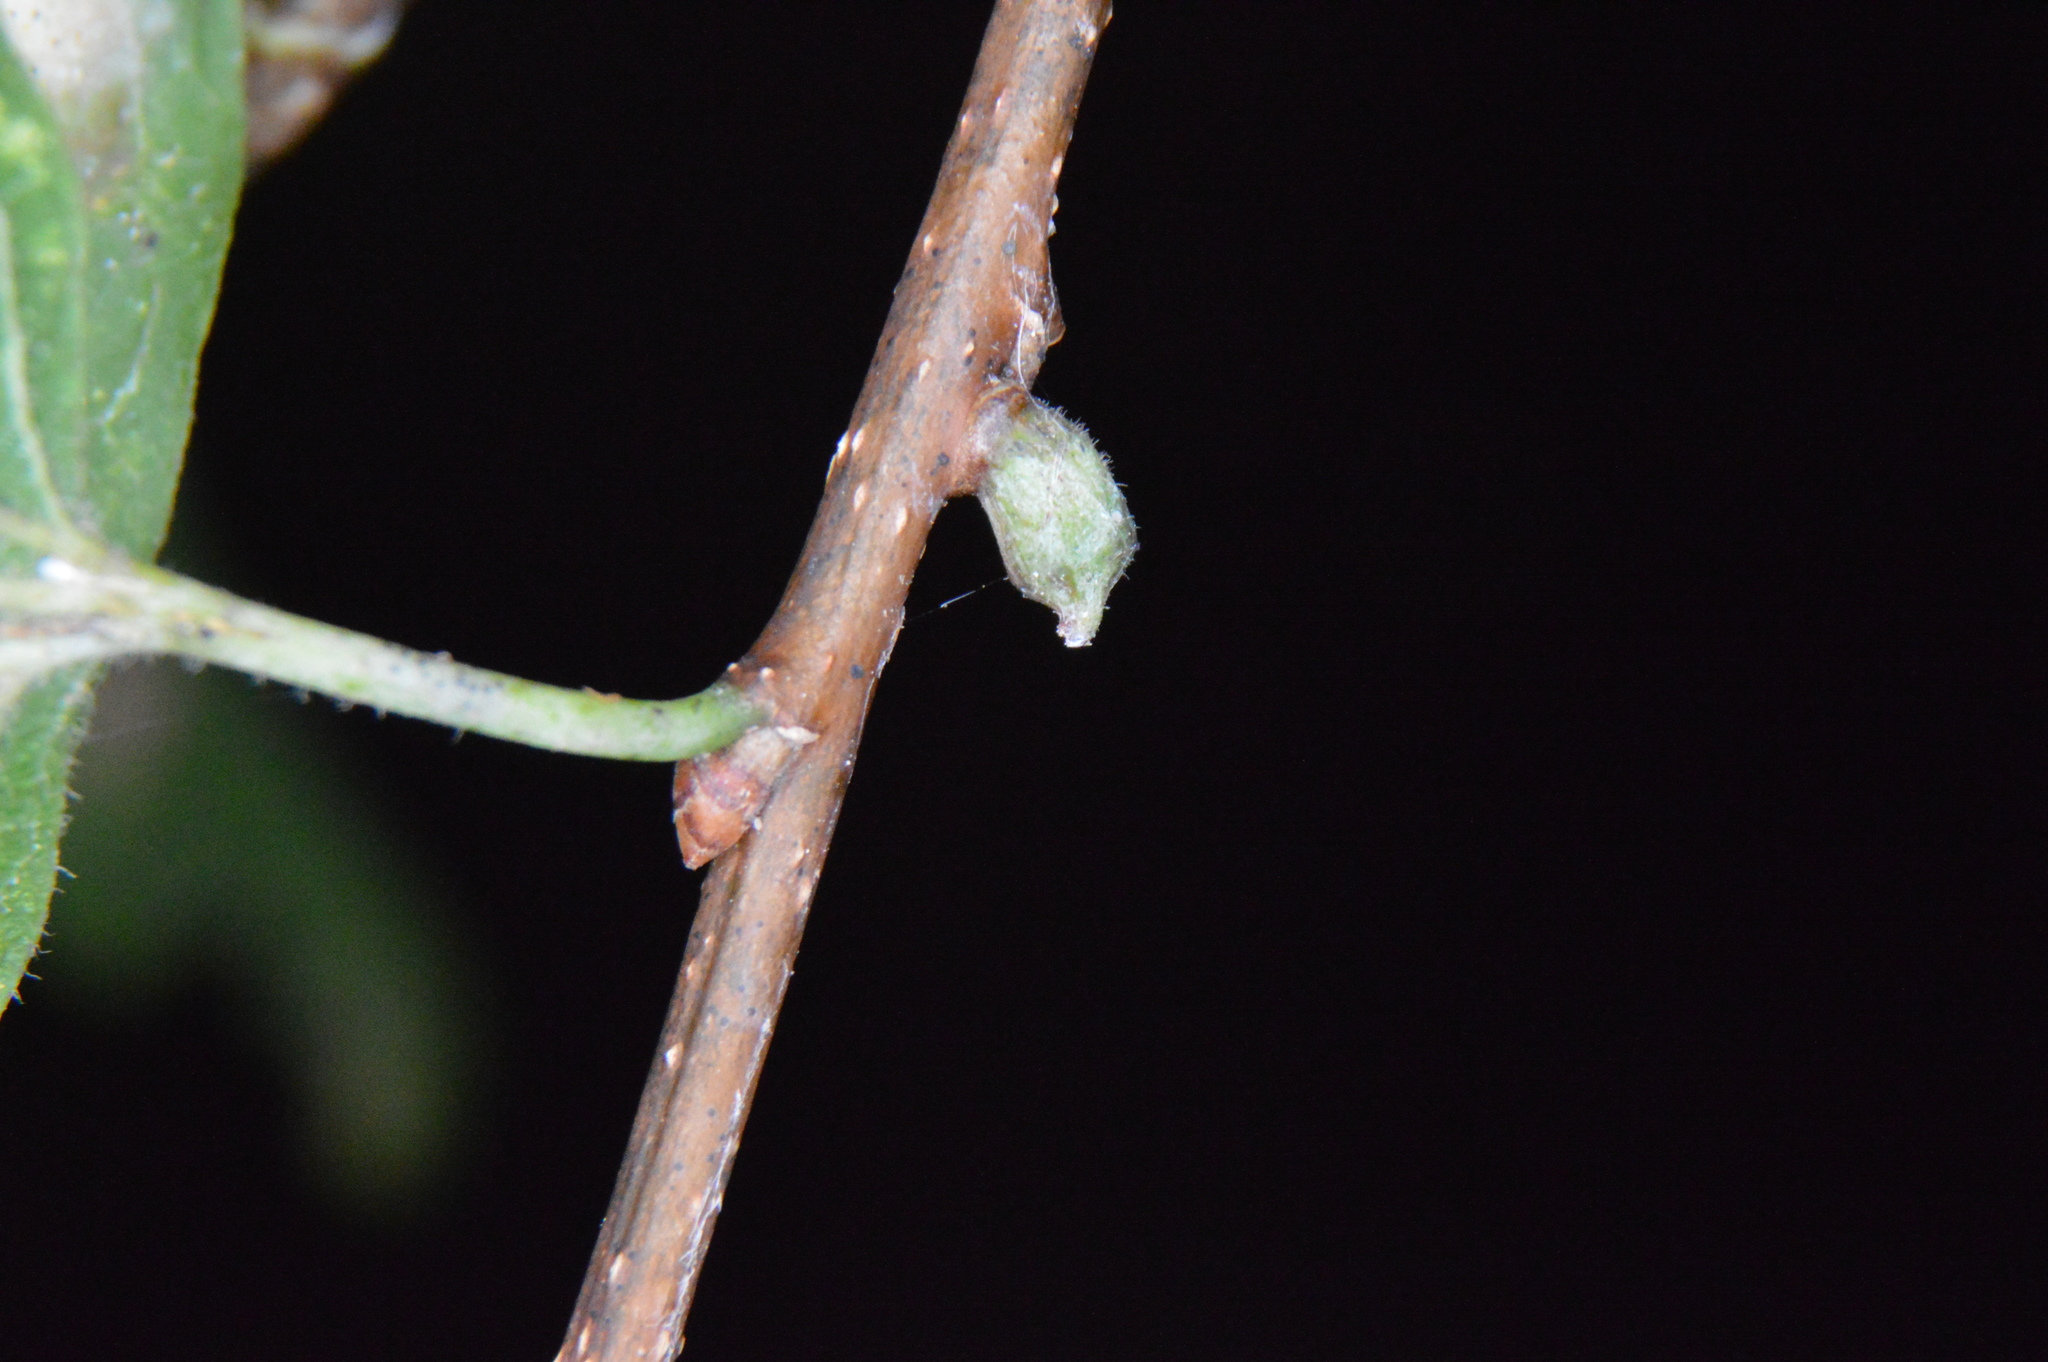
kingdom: Animalia
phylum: Arthropoda
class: Insecta
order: Diptera
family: Cecidomyiidae
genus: Celticecis
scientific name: Celticecis ramicola
